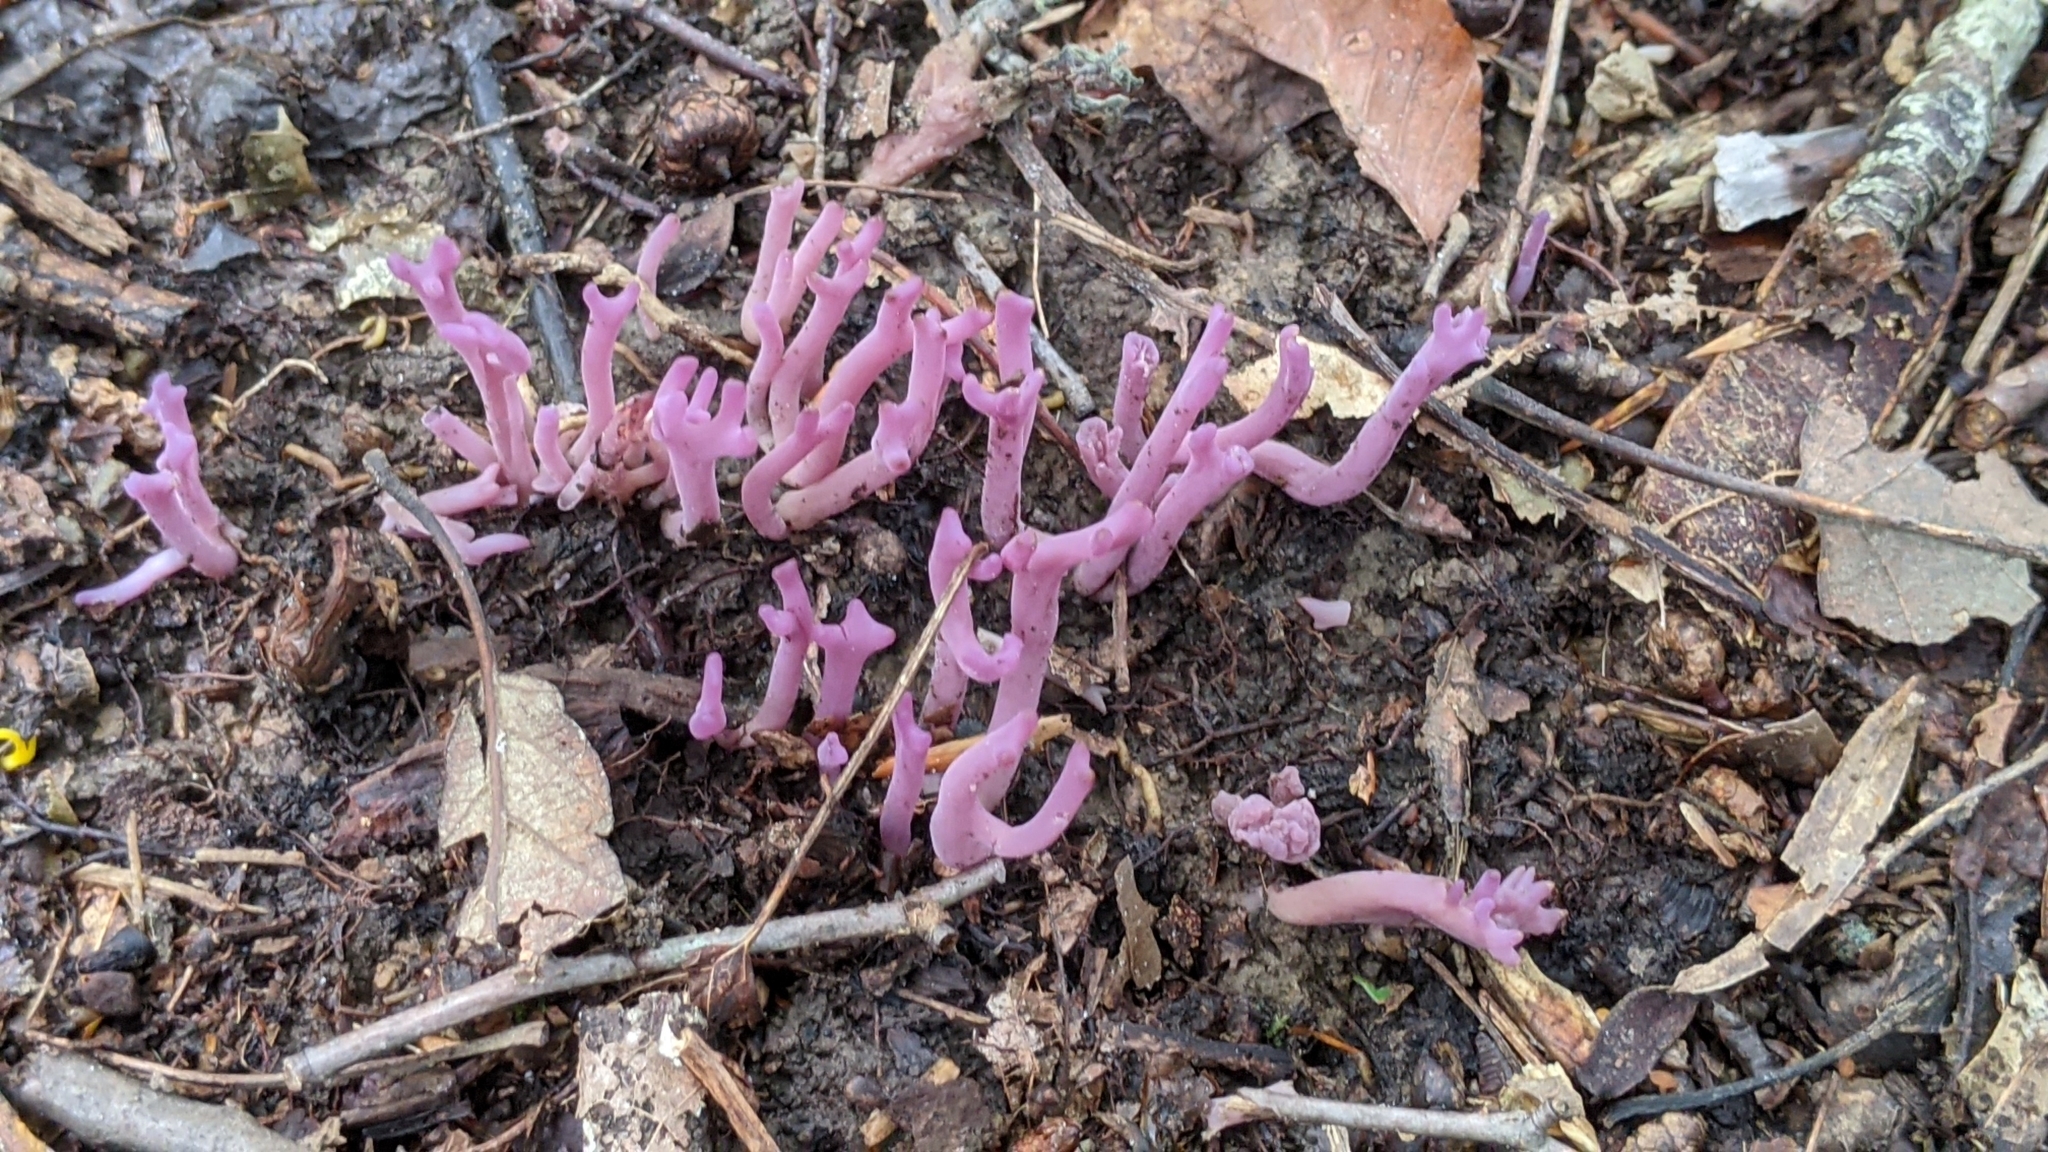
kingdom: Fungi
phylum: Basidiomycota
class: Agaricomycetes
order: Agaricales
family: Clavariaceae
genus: Clavaria
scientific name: Clavaria zollingeri
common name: Violet coral
